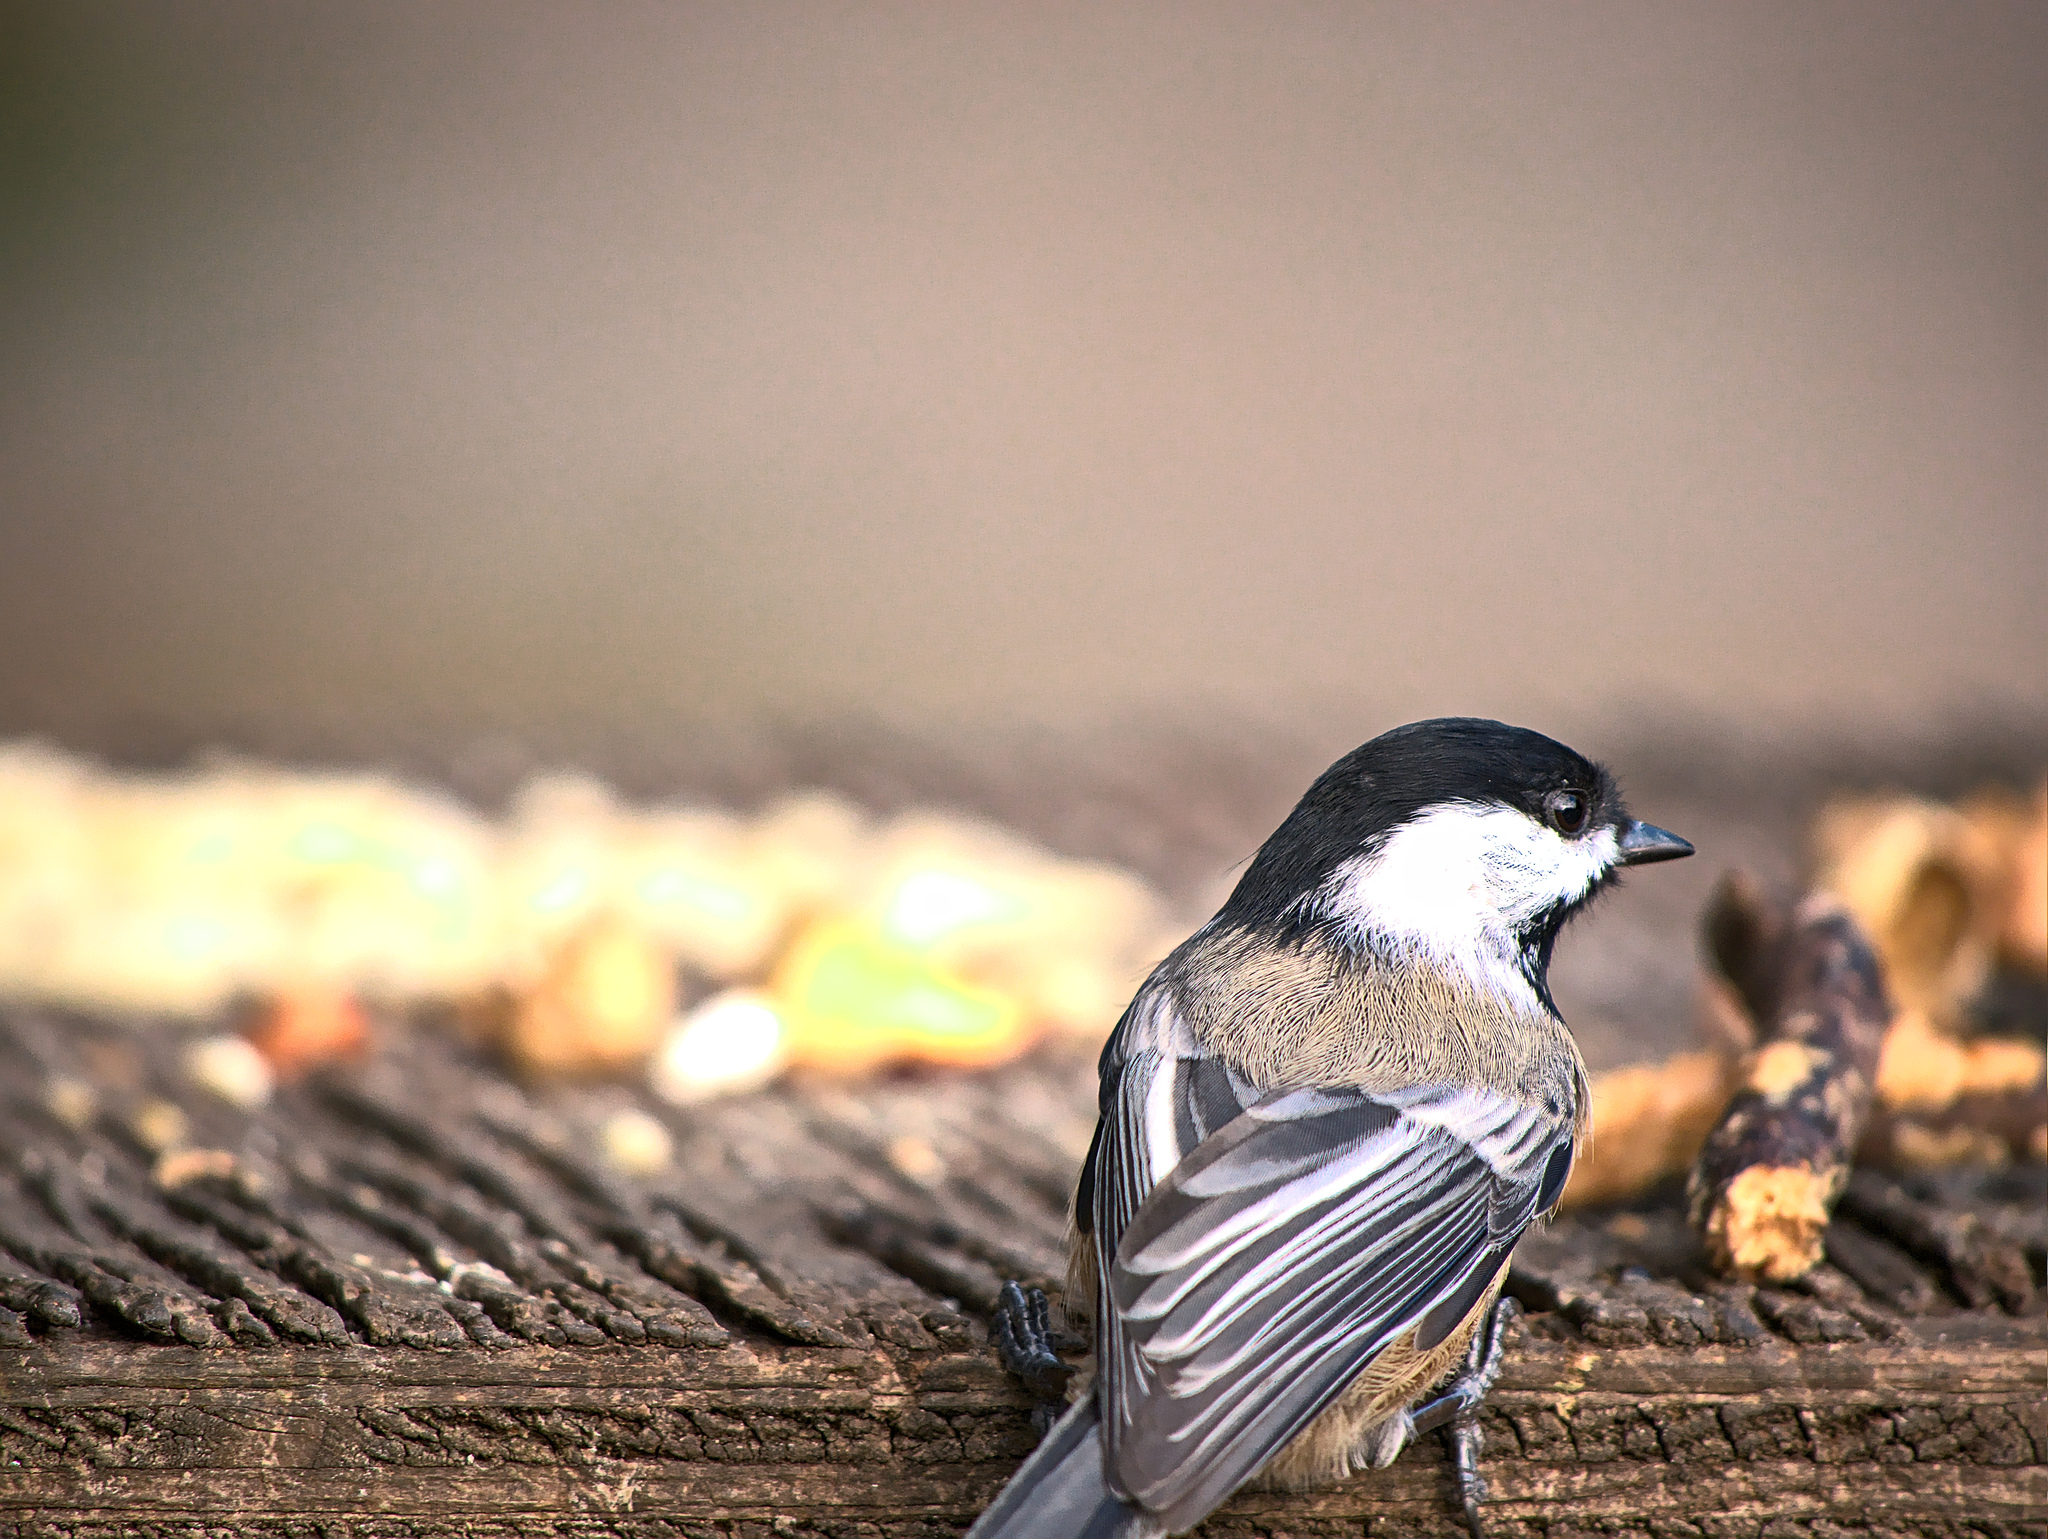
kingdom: Animalia
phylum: Chordata
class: Aves
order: Passeriformes
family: Paridae
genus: Poecile
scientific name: Poecile atricapillus
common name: Black-capped chickadee
